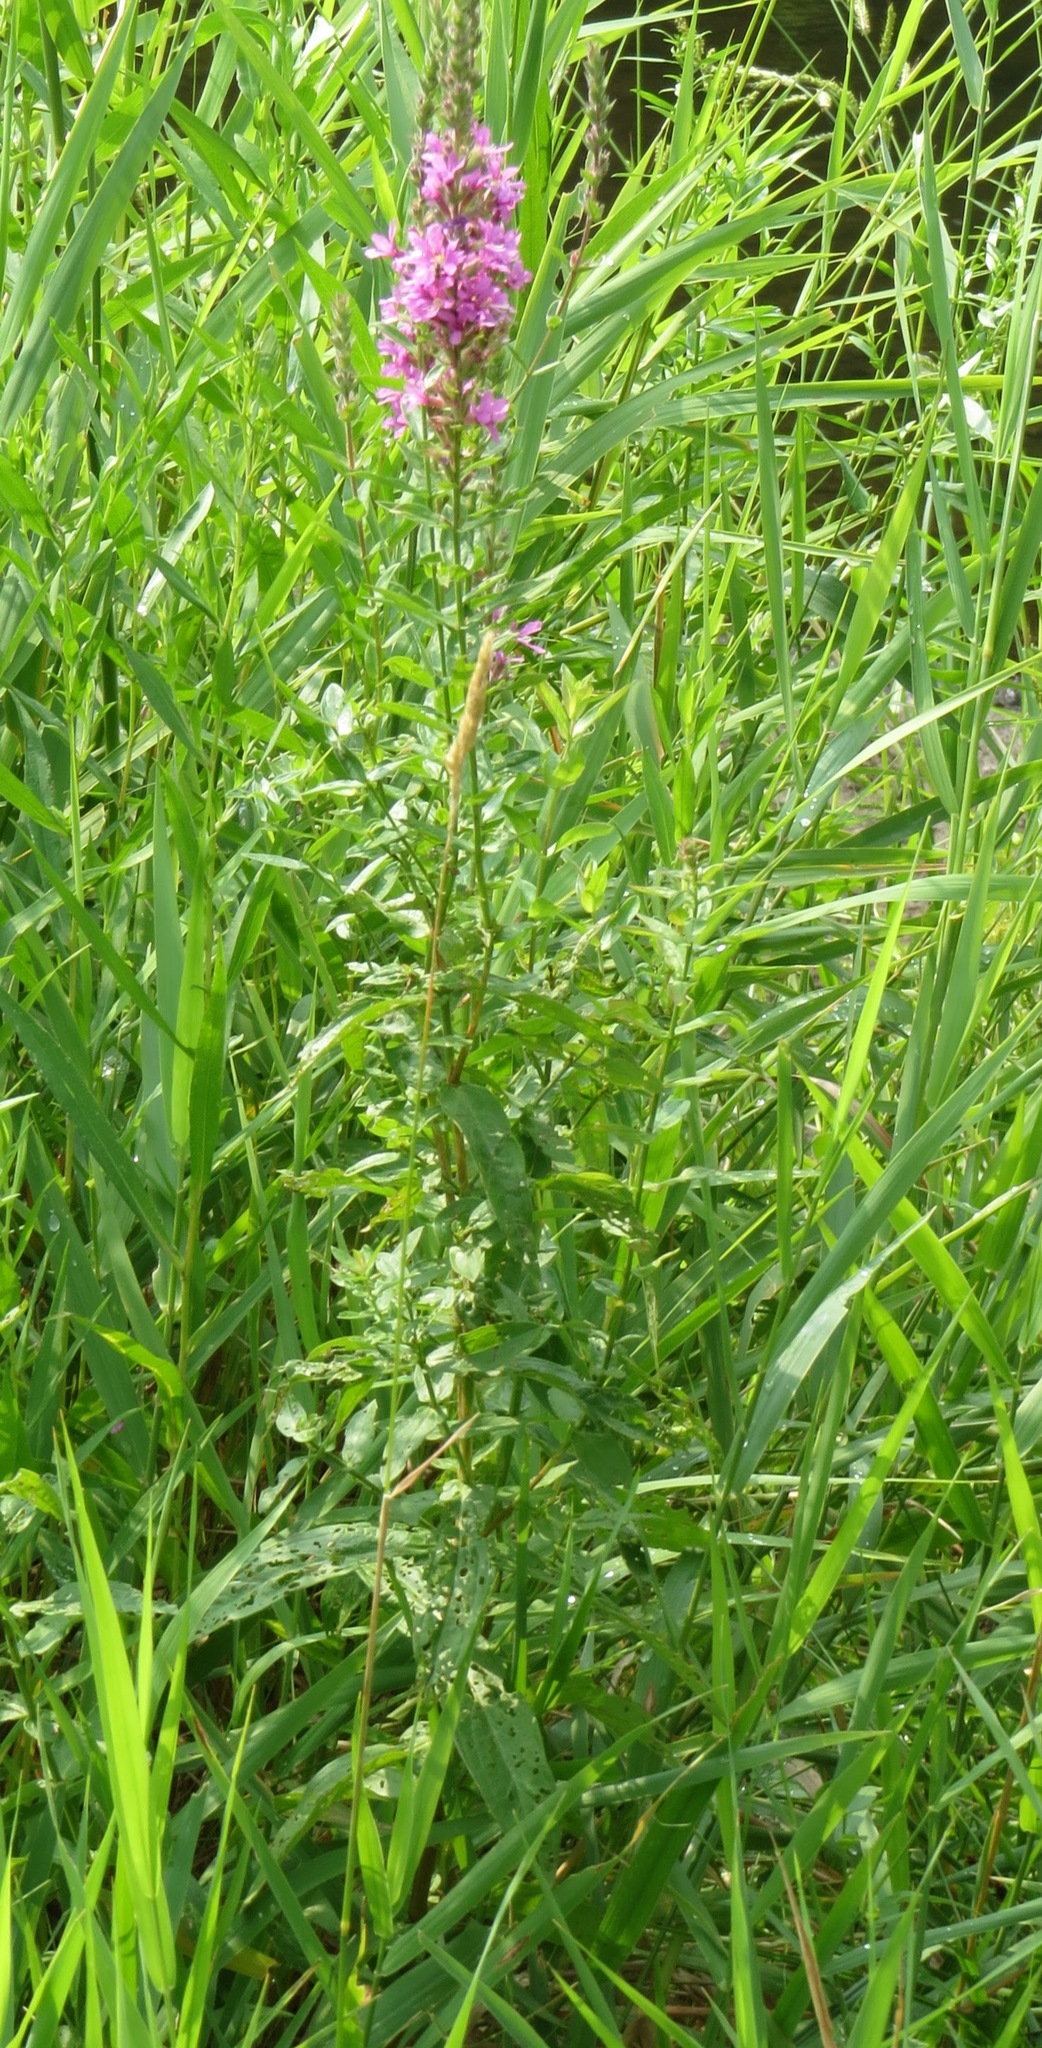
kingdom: Plantae
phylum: Tracheophyta
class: Magnoliopsida
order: Myrtales
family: Lythraceae
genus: Lythrum
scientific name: Lythrum salicaria
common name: Purple loosestrife
